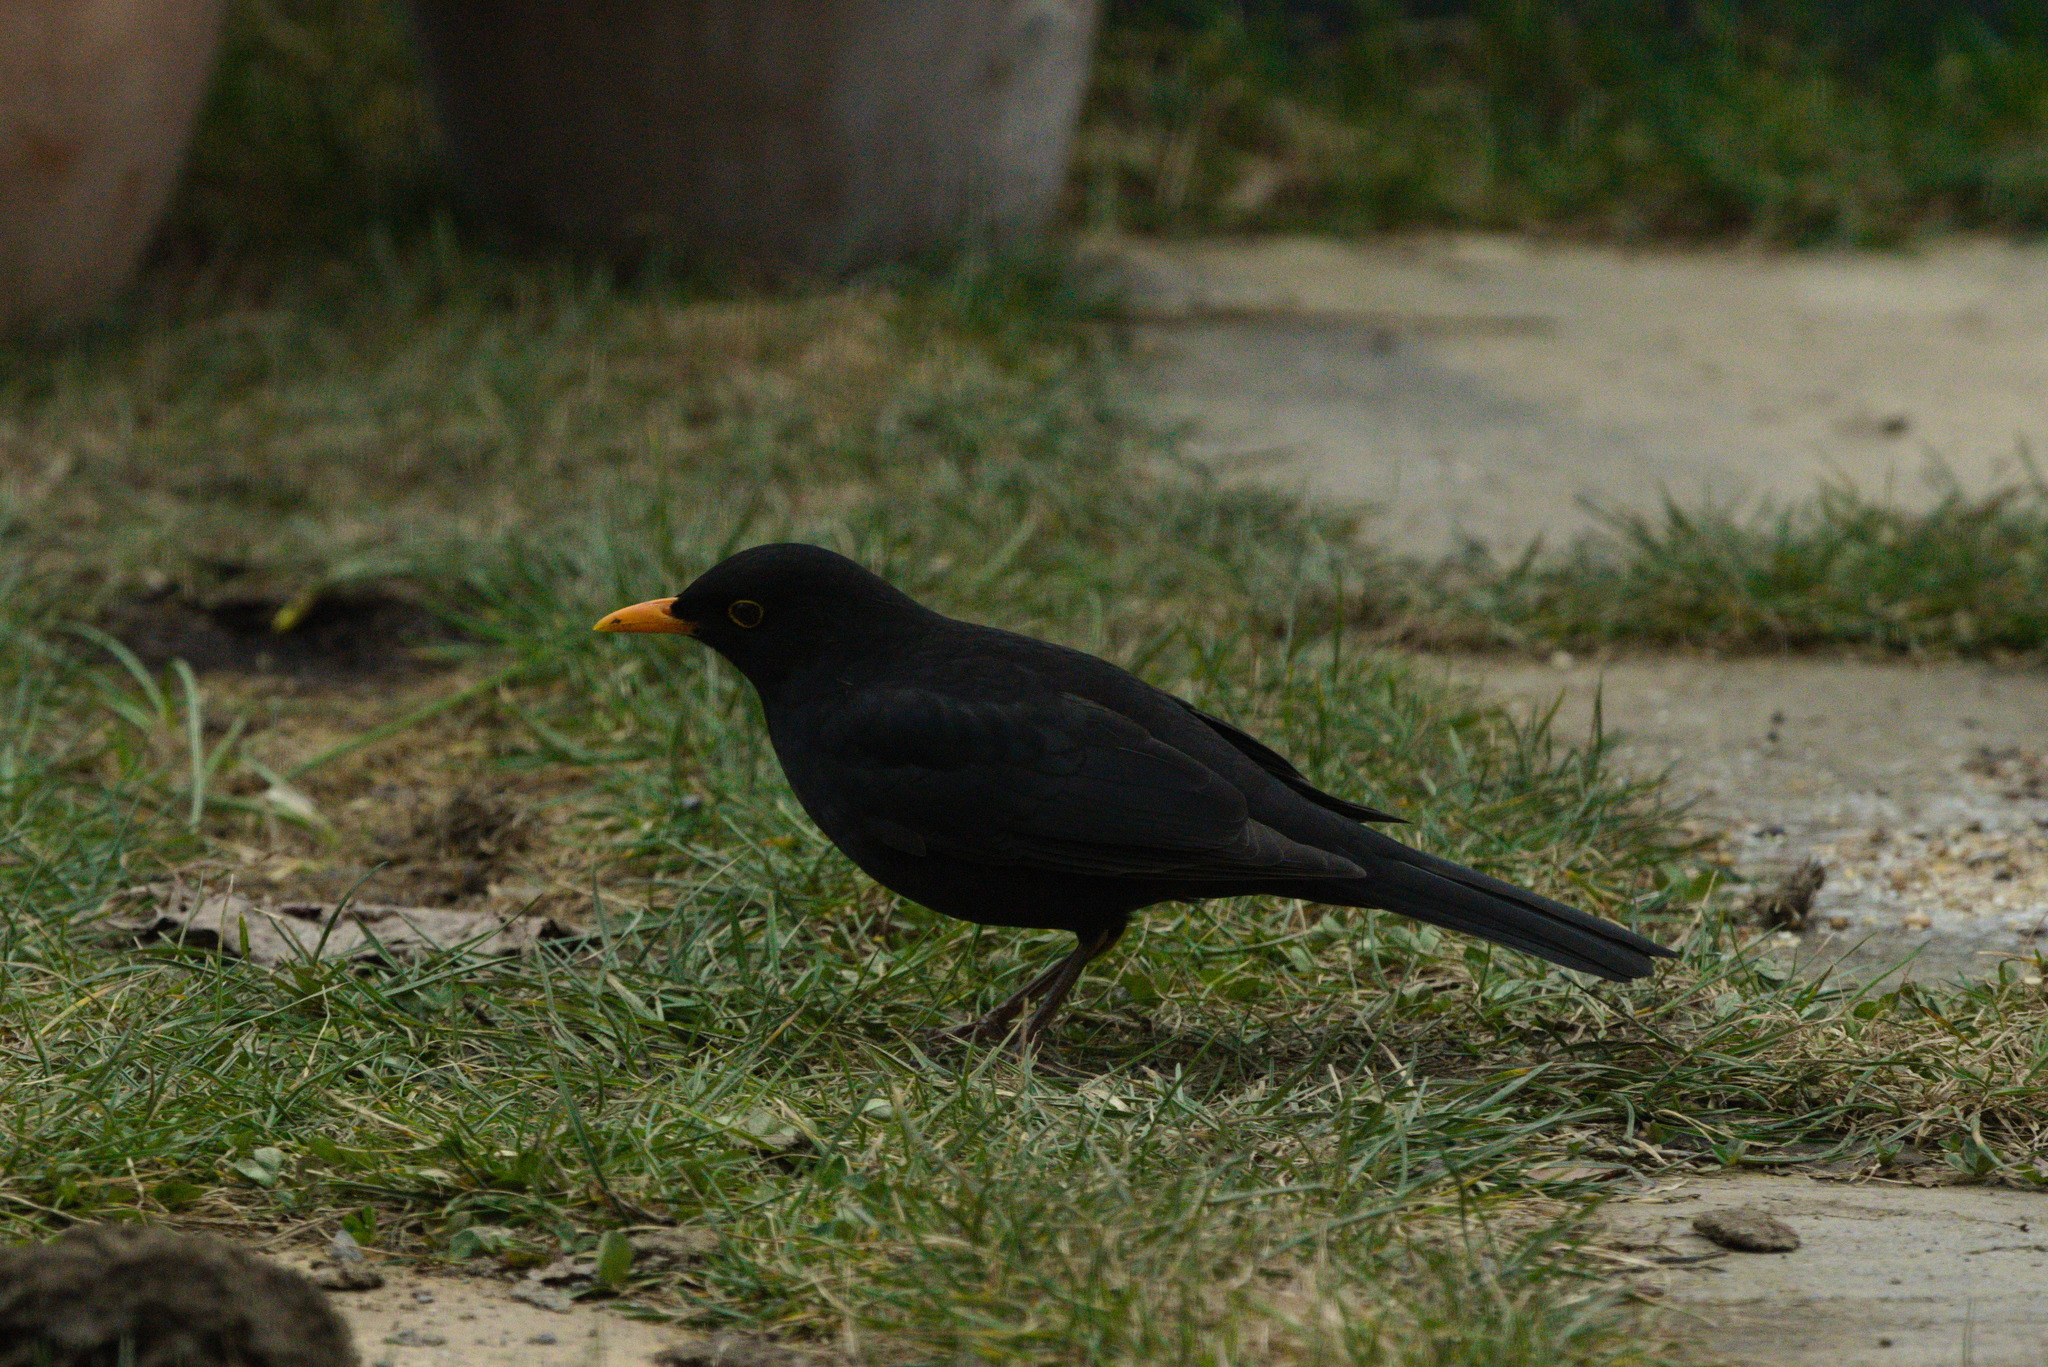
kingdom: Animalia
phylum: Chordata
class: Aves
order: Passeriformes
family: Turdidae
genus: Turdus
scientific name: Turdus merula
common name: Common blackbird
